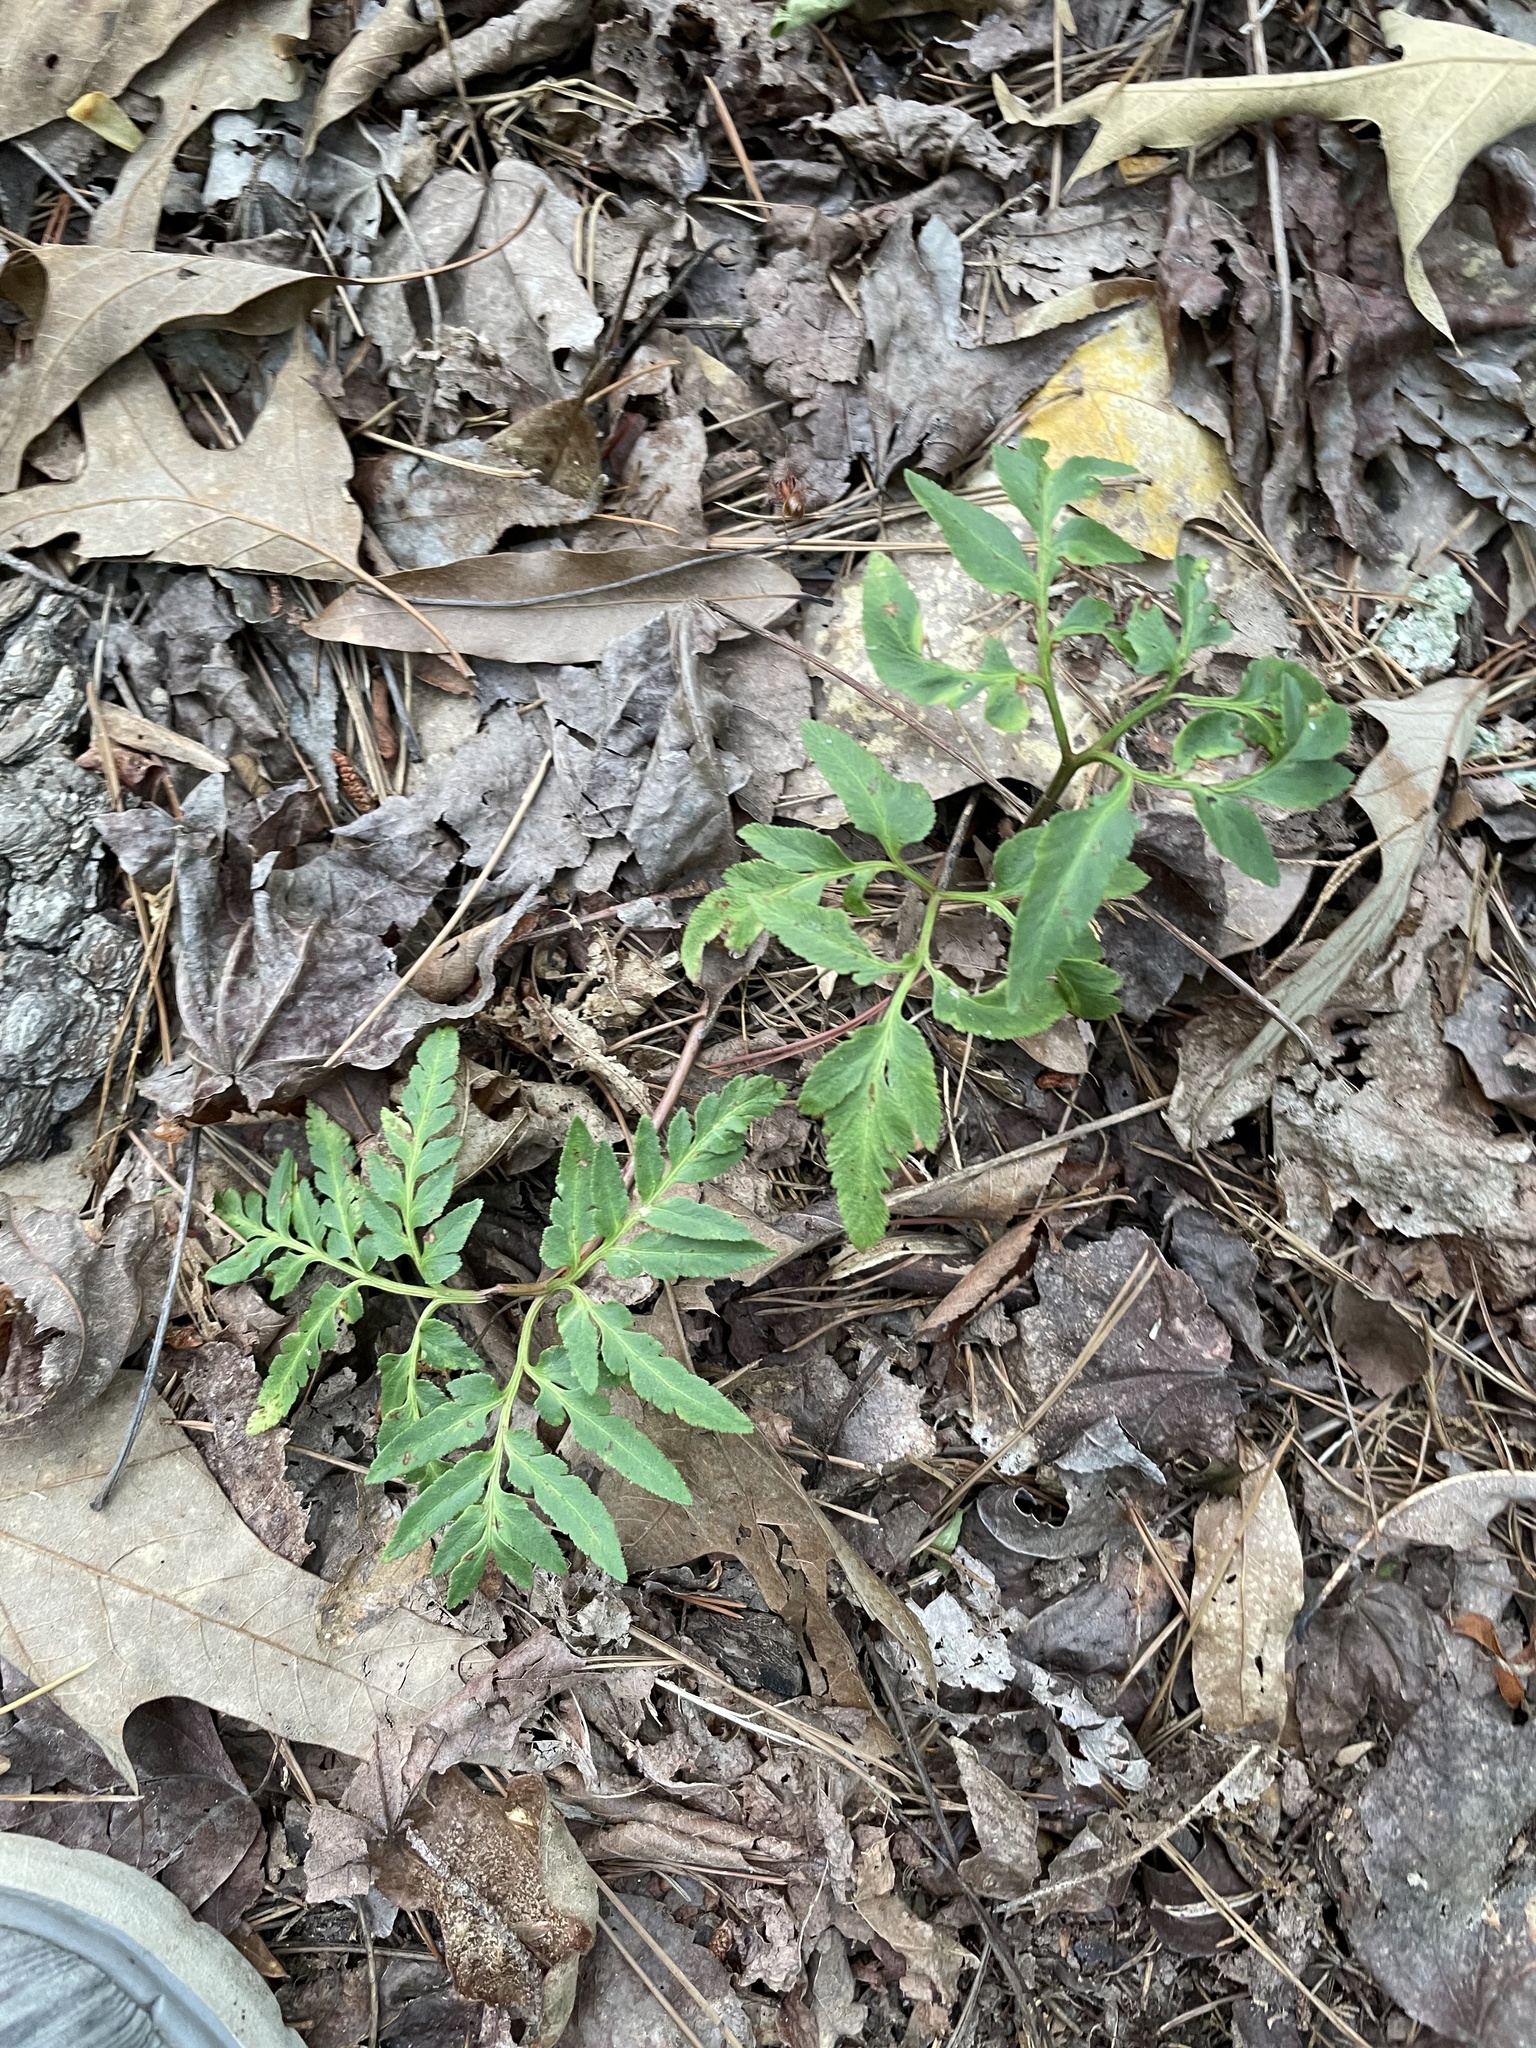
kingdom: Plantae
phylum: Tracheophyta
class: Polypodiopsida
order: Ophioglossales
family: Ophioglossaceae
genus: Sceptridium
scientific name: Sceptridium dissectum
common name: Cut-leaved grapefern
